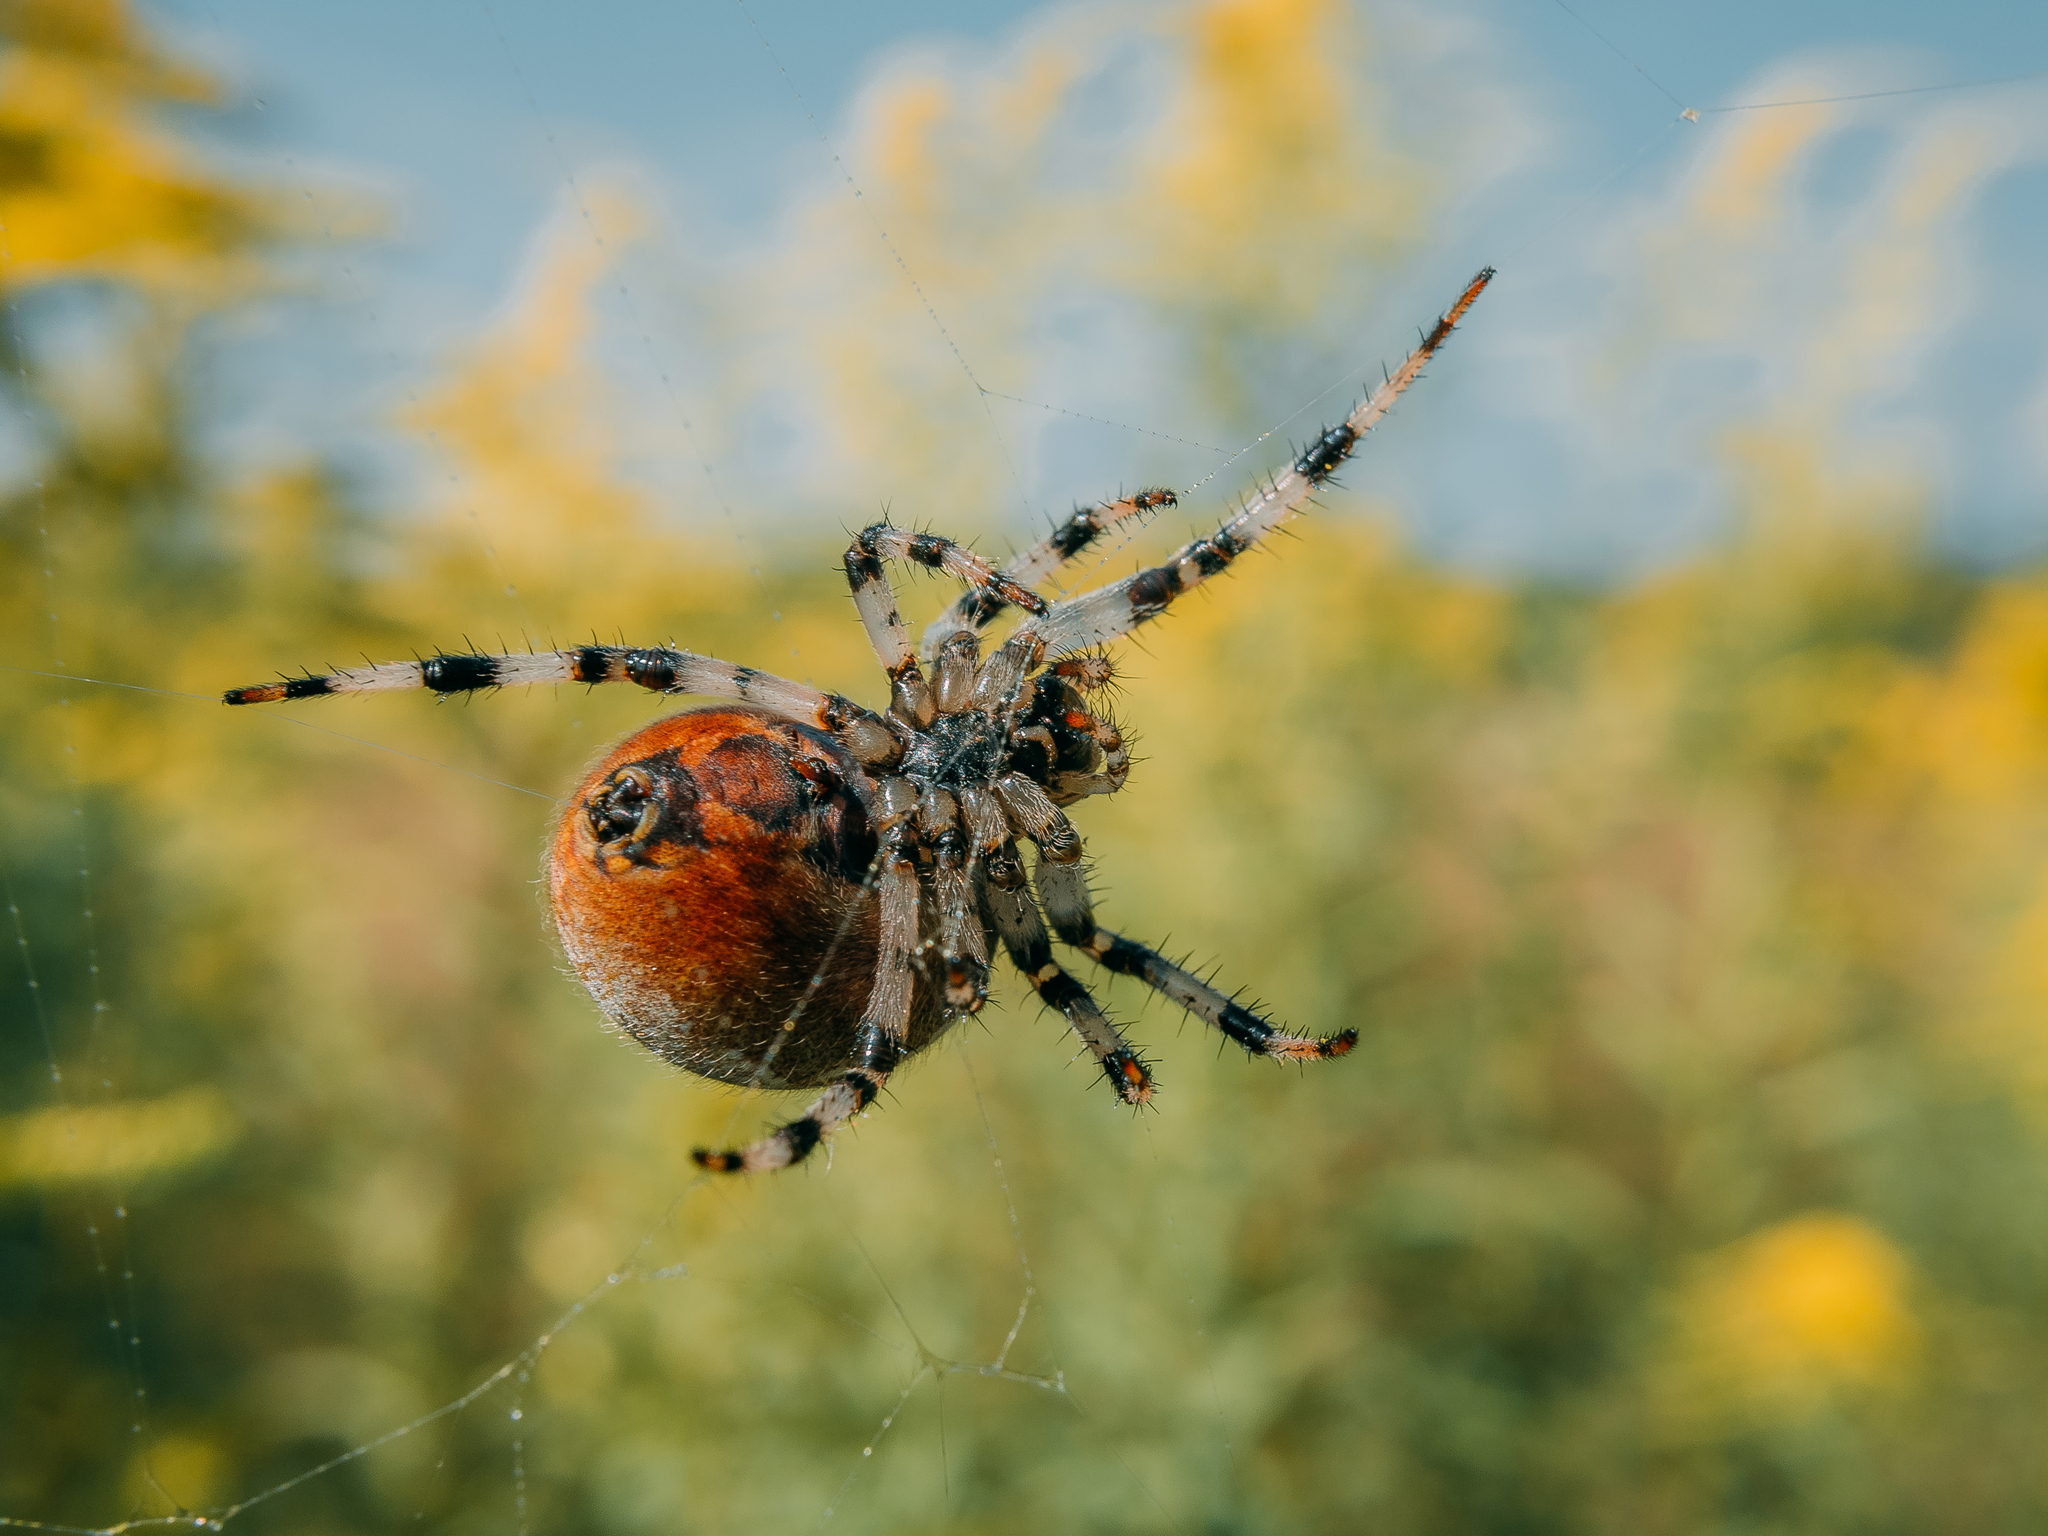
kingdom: Animalia
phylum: Arthropoda
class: Arachnida
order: Araneae
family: Araneidae
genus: Araneus
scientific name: Araneus marmoreus
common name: Marbled orbweaver
